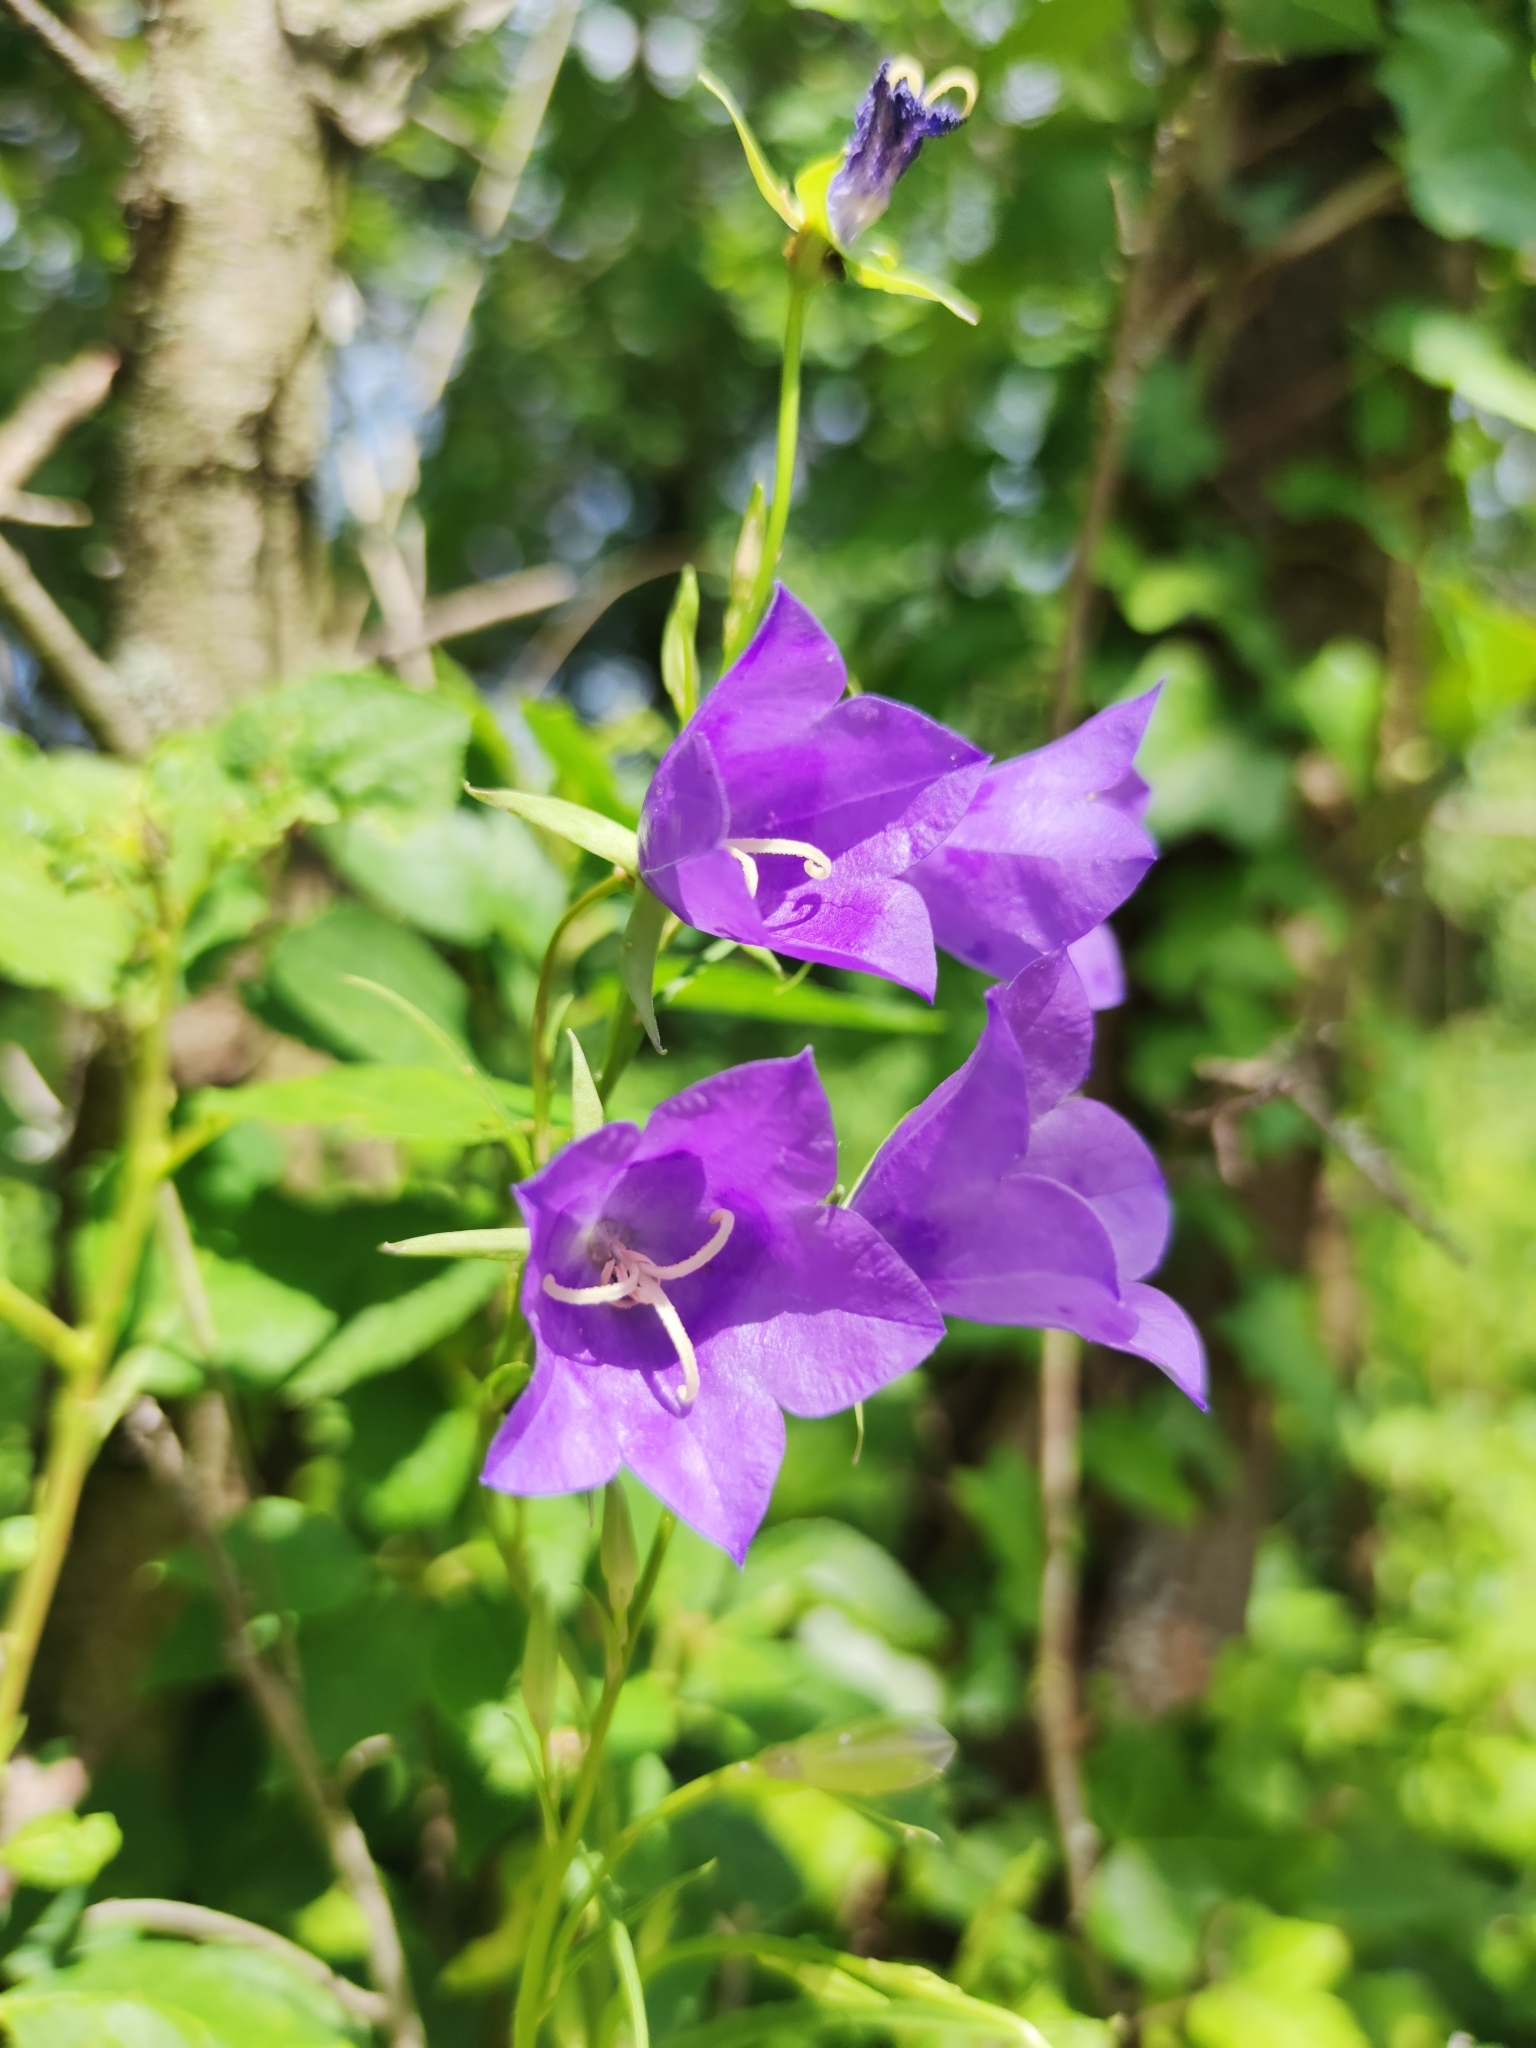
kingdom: Plantae
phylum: Tracheophyta
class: Magnoliopsida
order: Asterales
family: Campanulaceae
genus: Campanula
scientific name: Campanula persicifolia
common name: Peach-leaved bellflower
